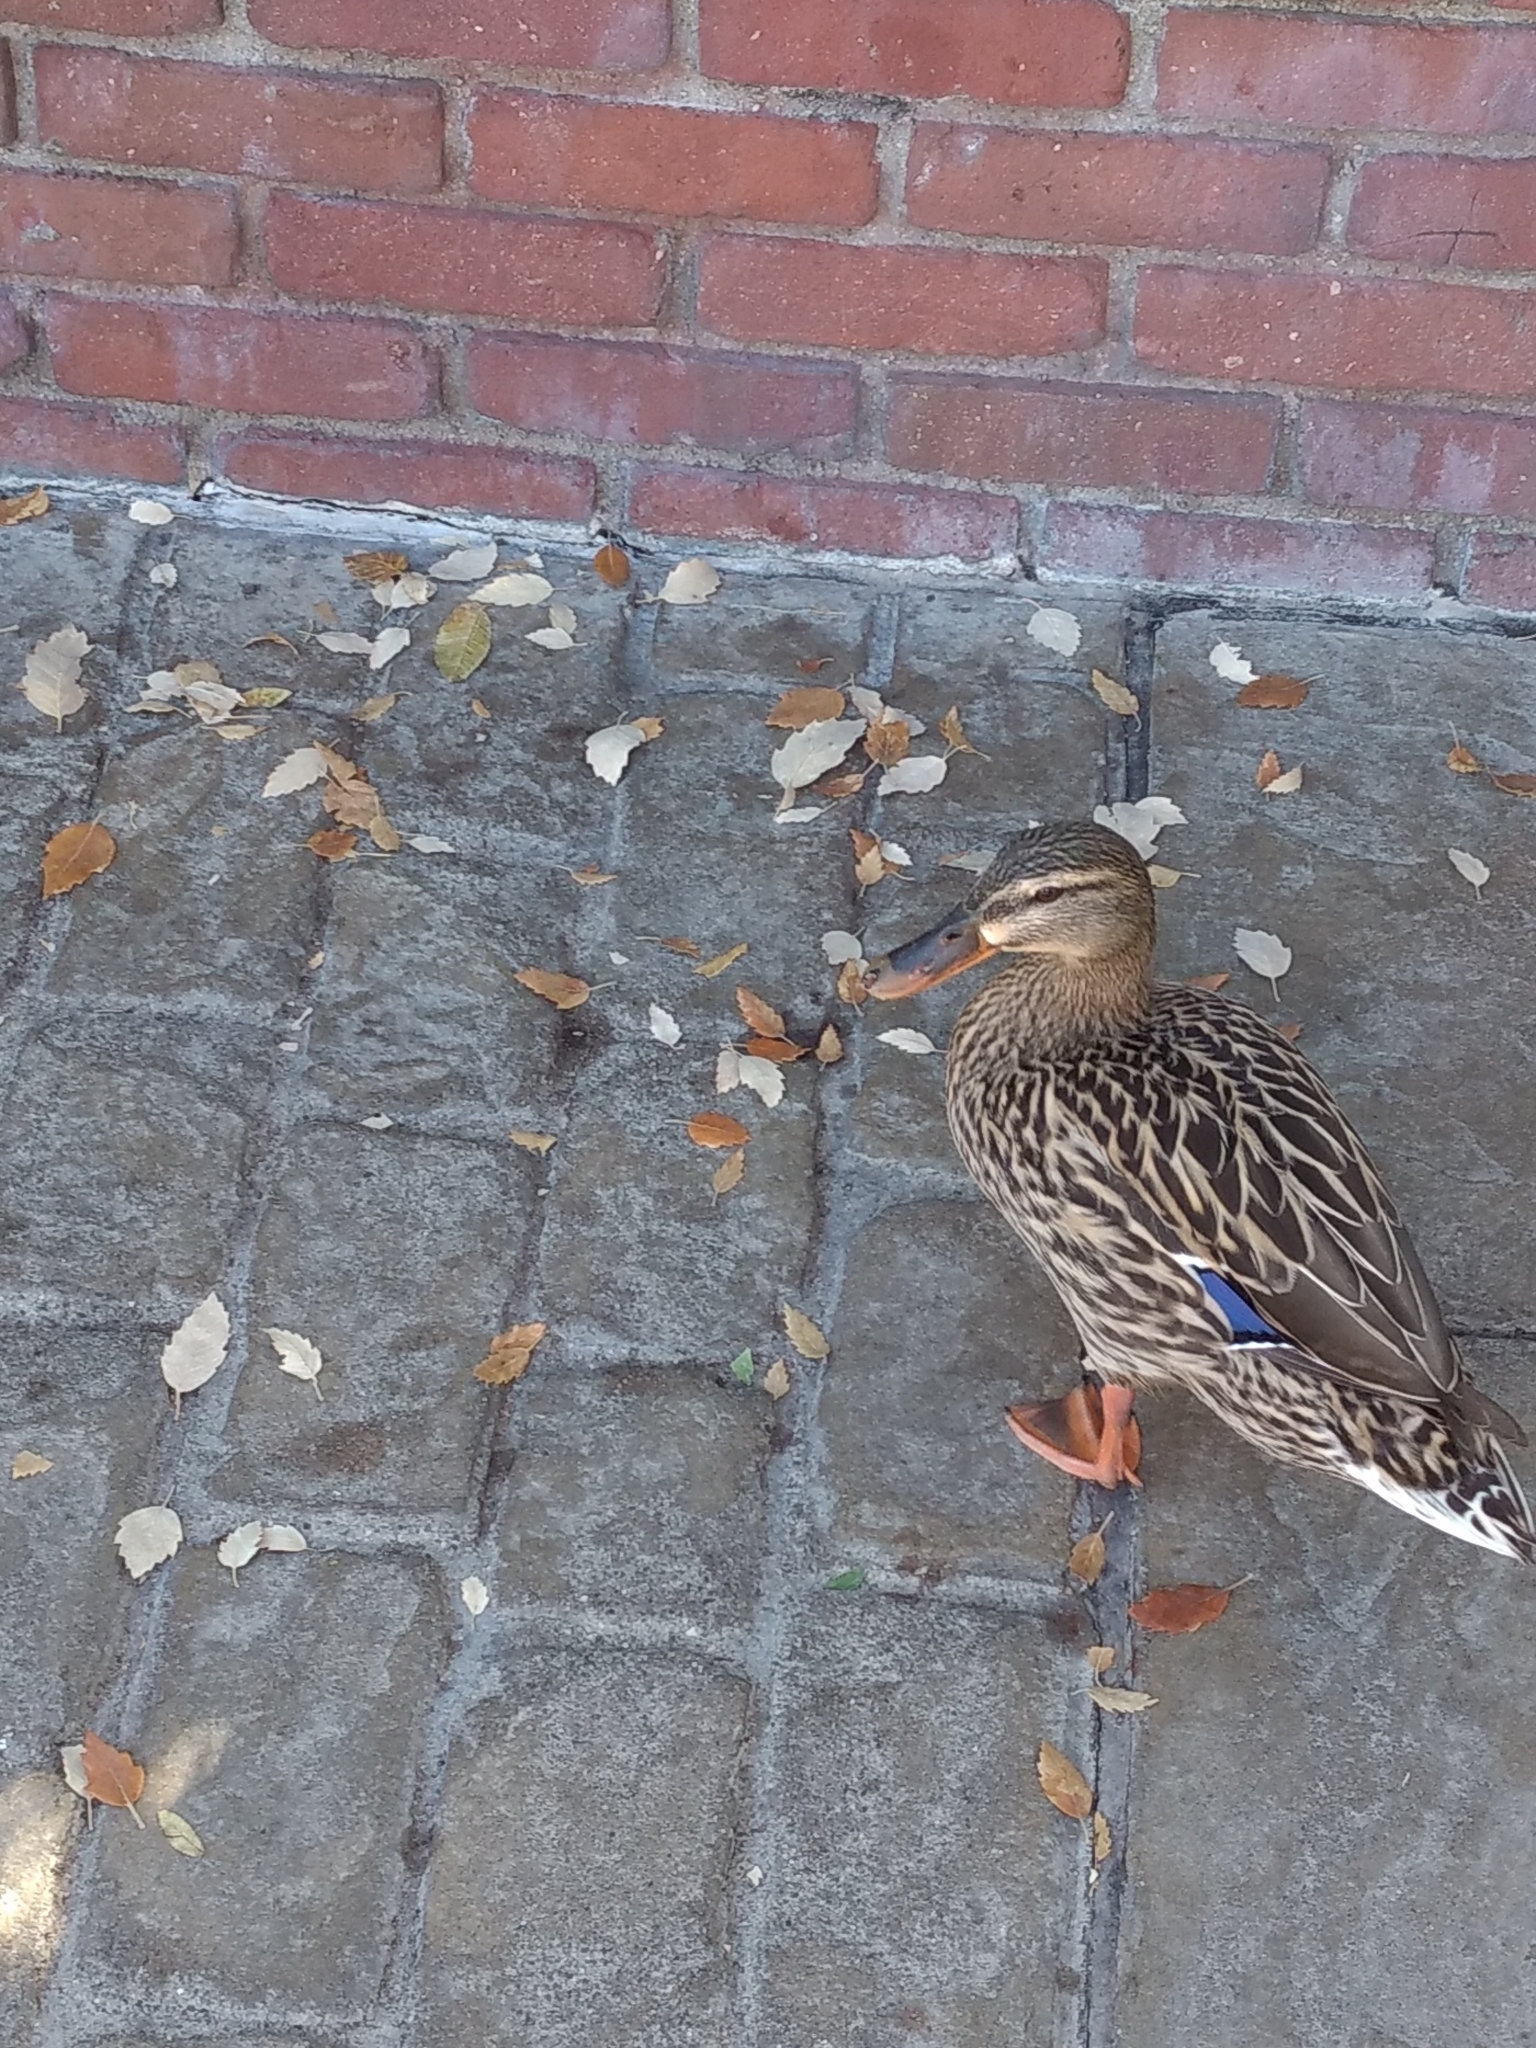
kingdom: Animalia
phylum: Chordata
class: Aves
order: Anseriformes
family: Anatidae
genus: Anas
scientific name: Anas platyrhynchos
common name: Mallard
